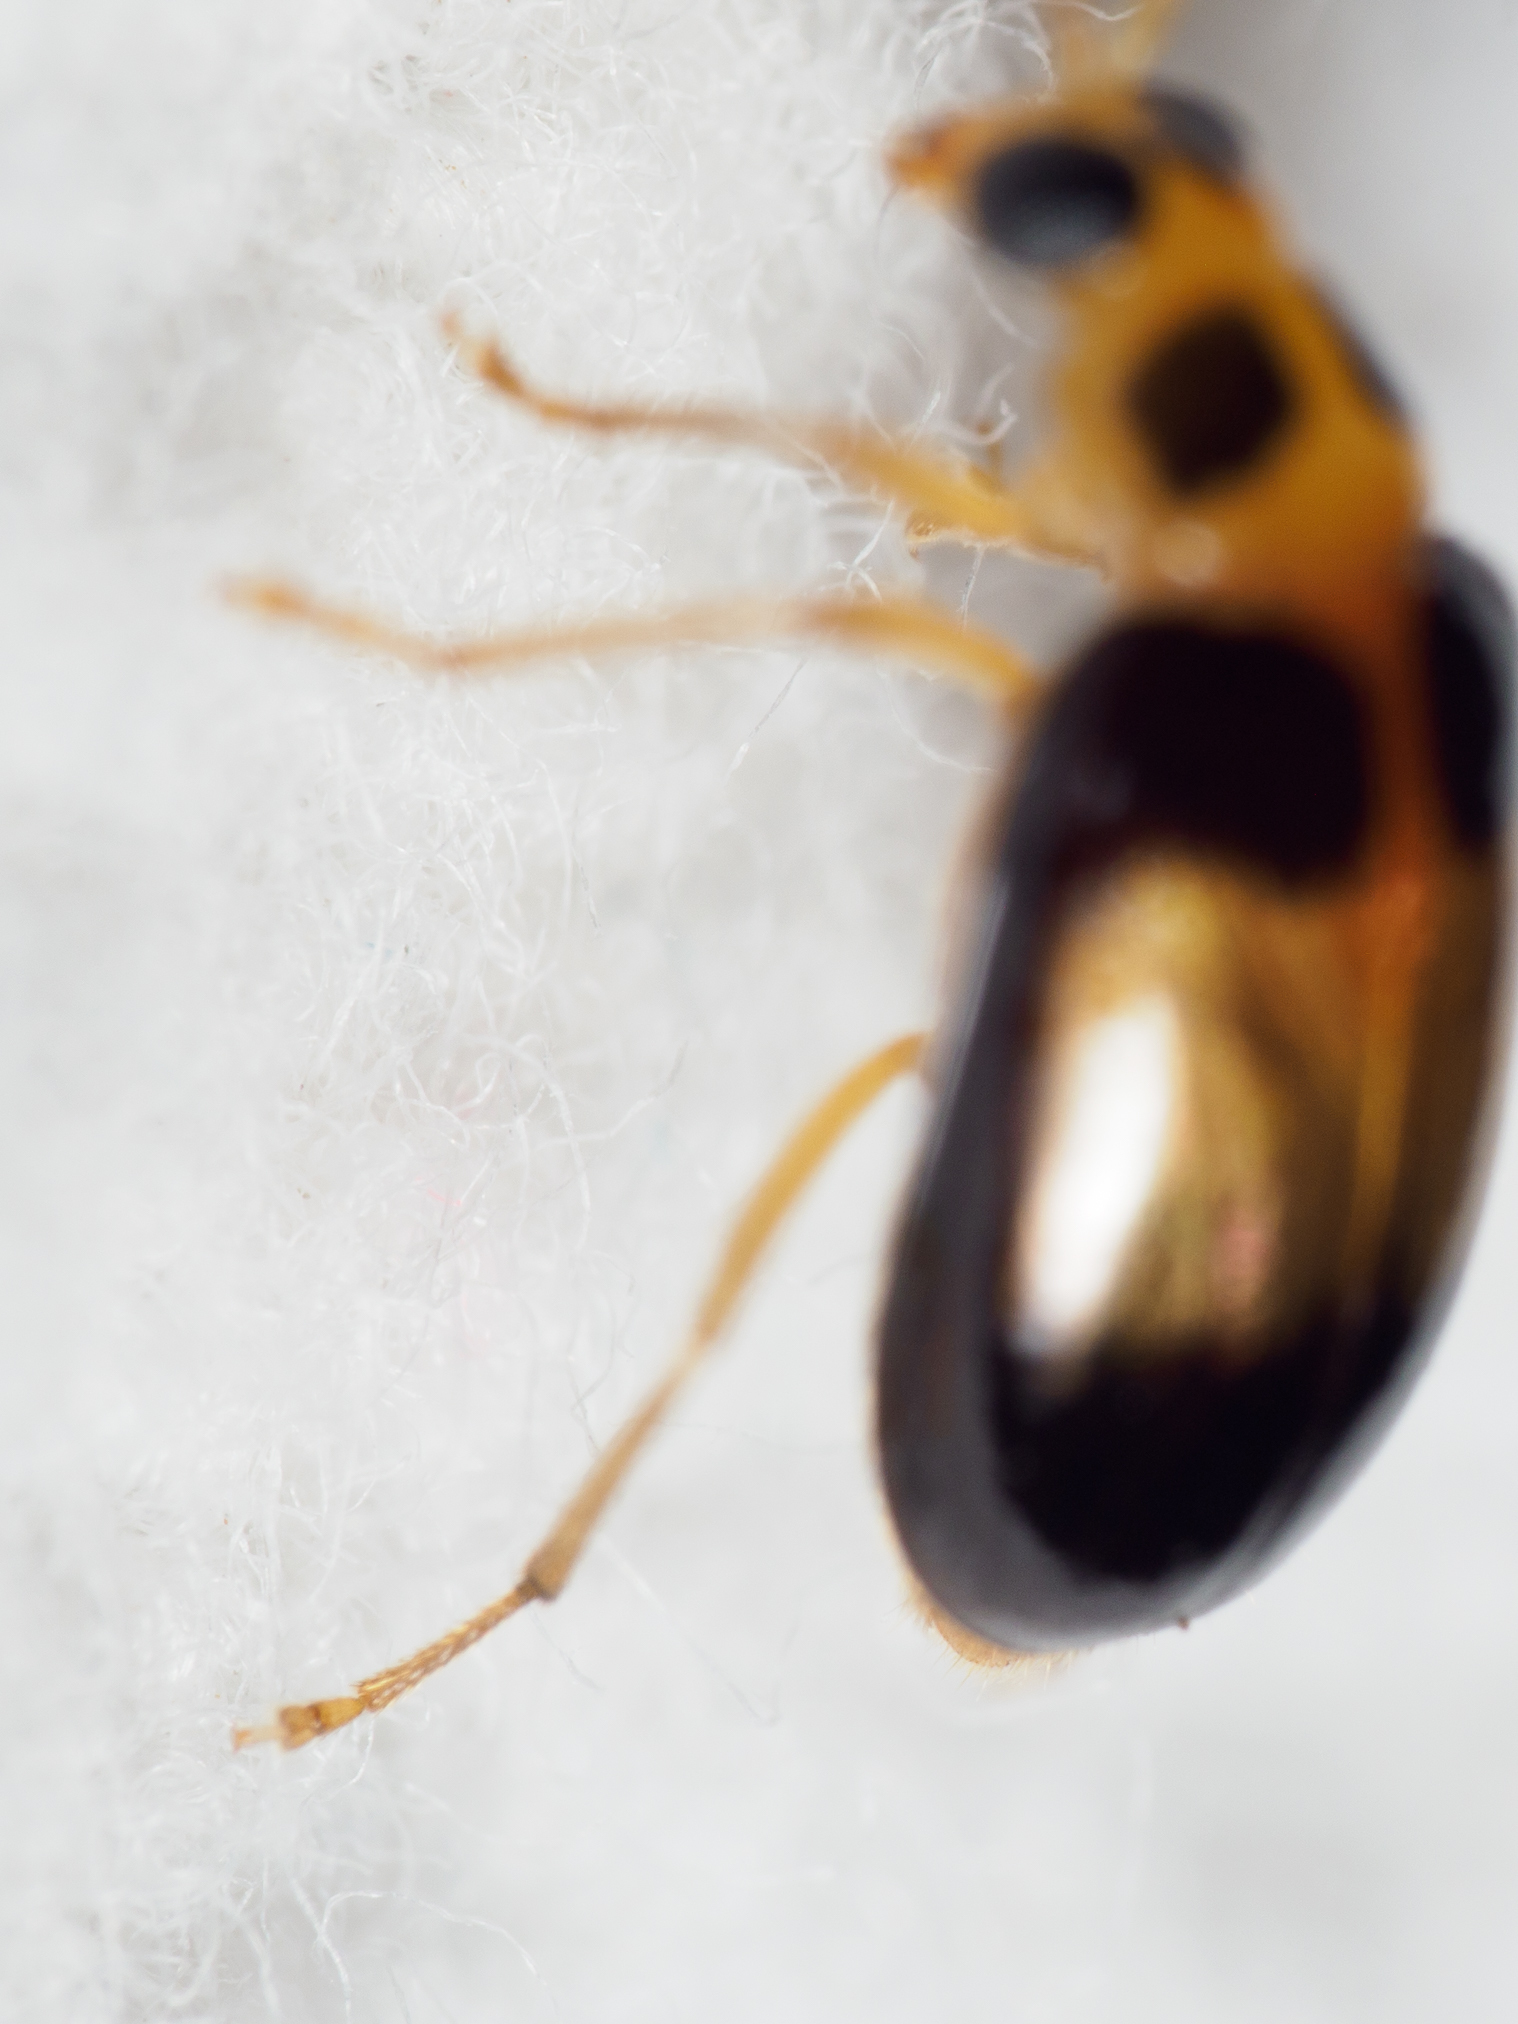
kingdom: Animalia
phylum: Arthropoda
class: Insecta
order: Coleoptera
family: Chrysomelidae
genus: Monolepta
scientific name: Monolepta
